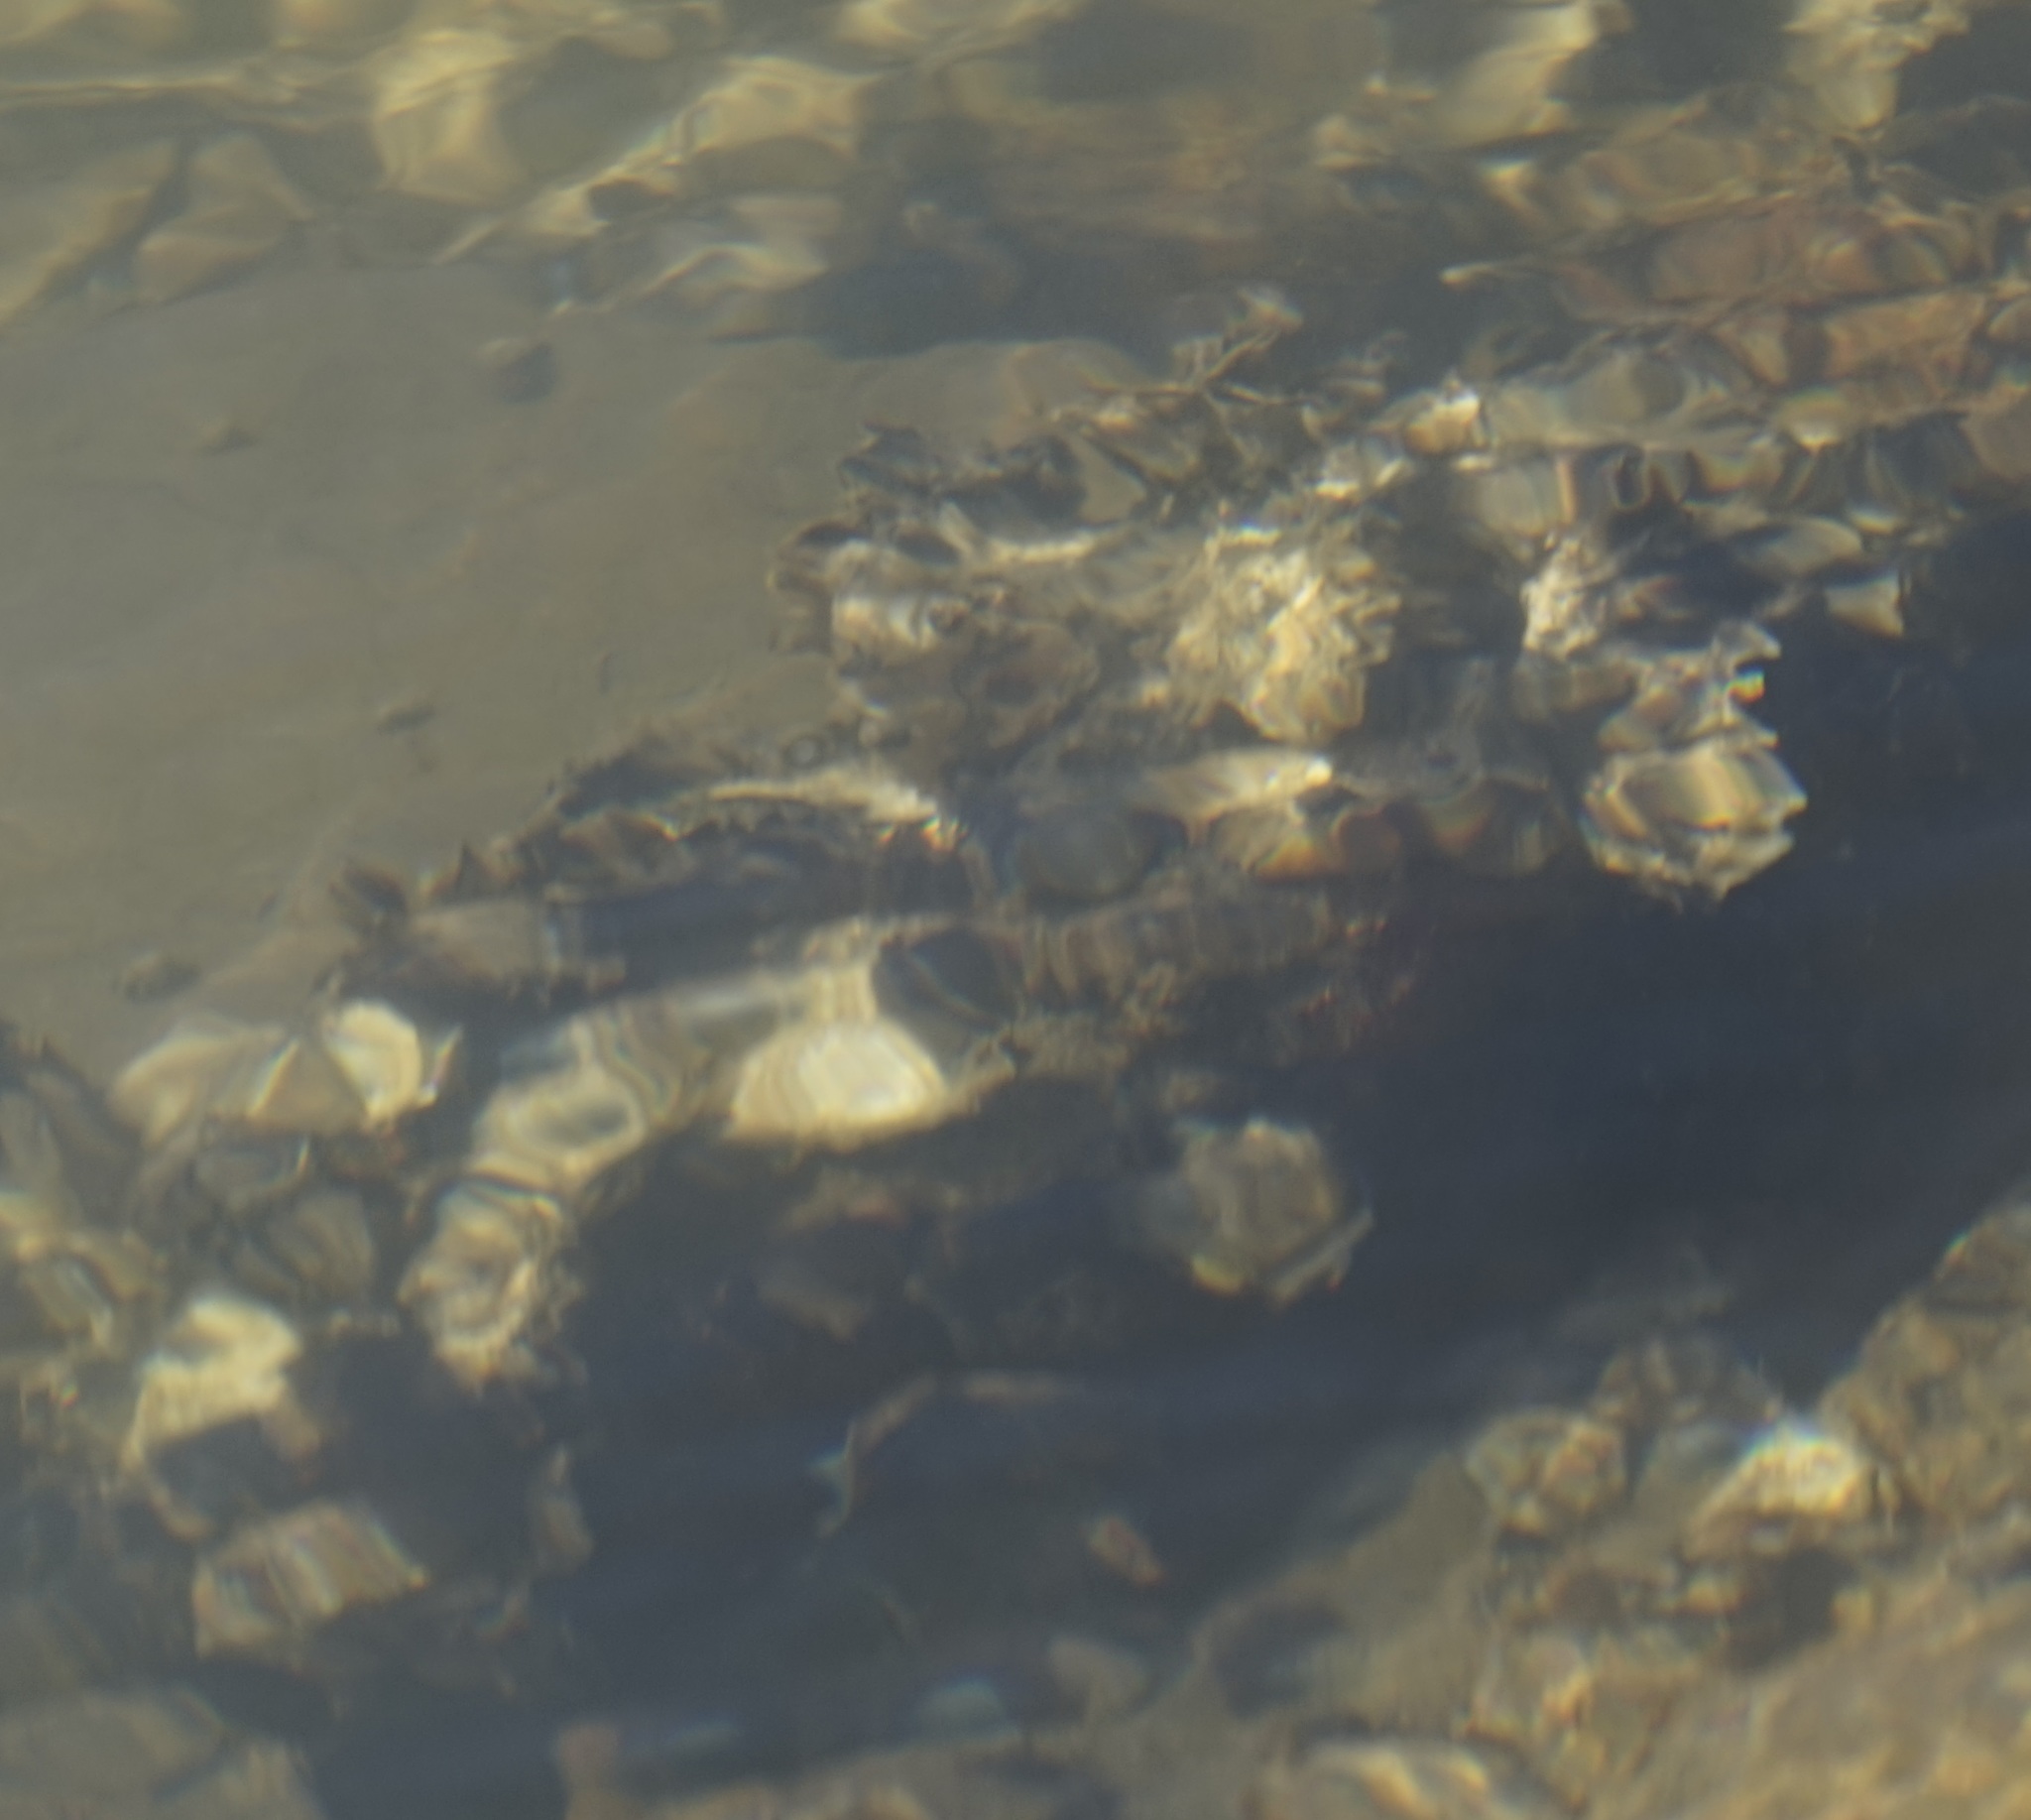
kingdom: Animalia
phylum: Mollusca
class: Bivalvia
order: Ostreida
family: Ostreidae
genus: Saccostrea
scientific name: Saccostrea glomerata
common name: Sydney cupped oyster
